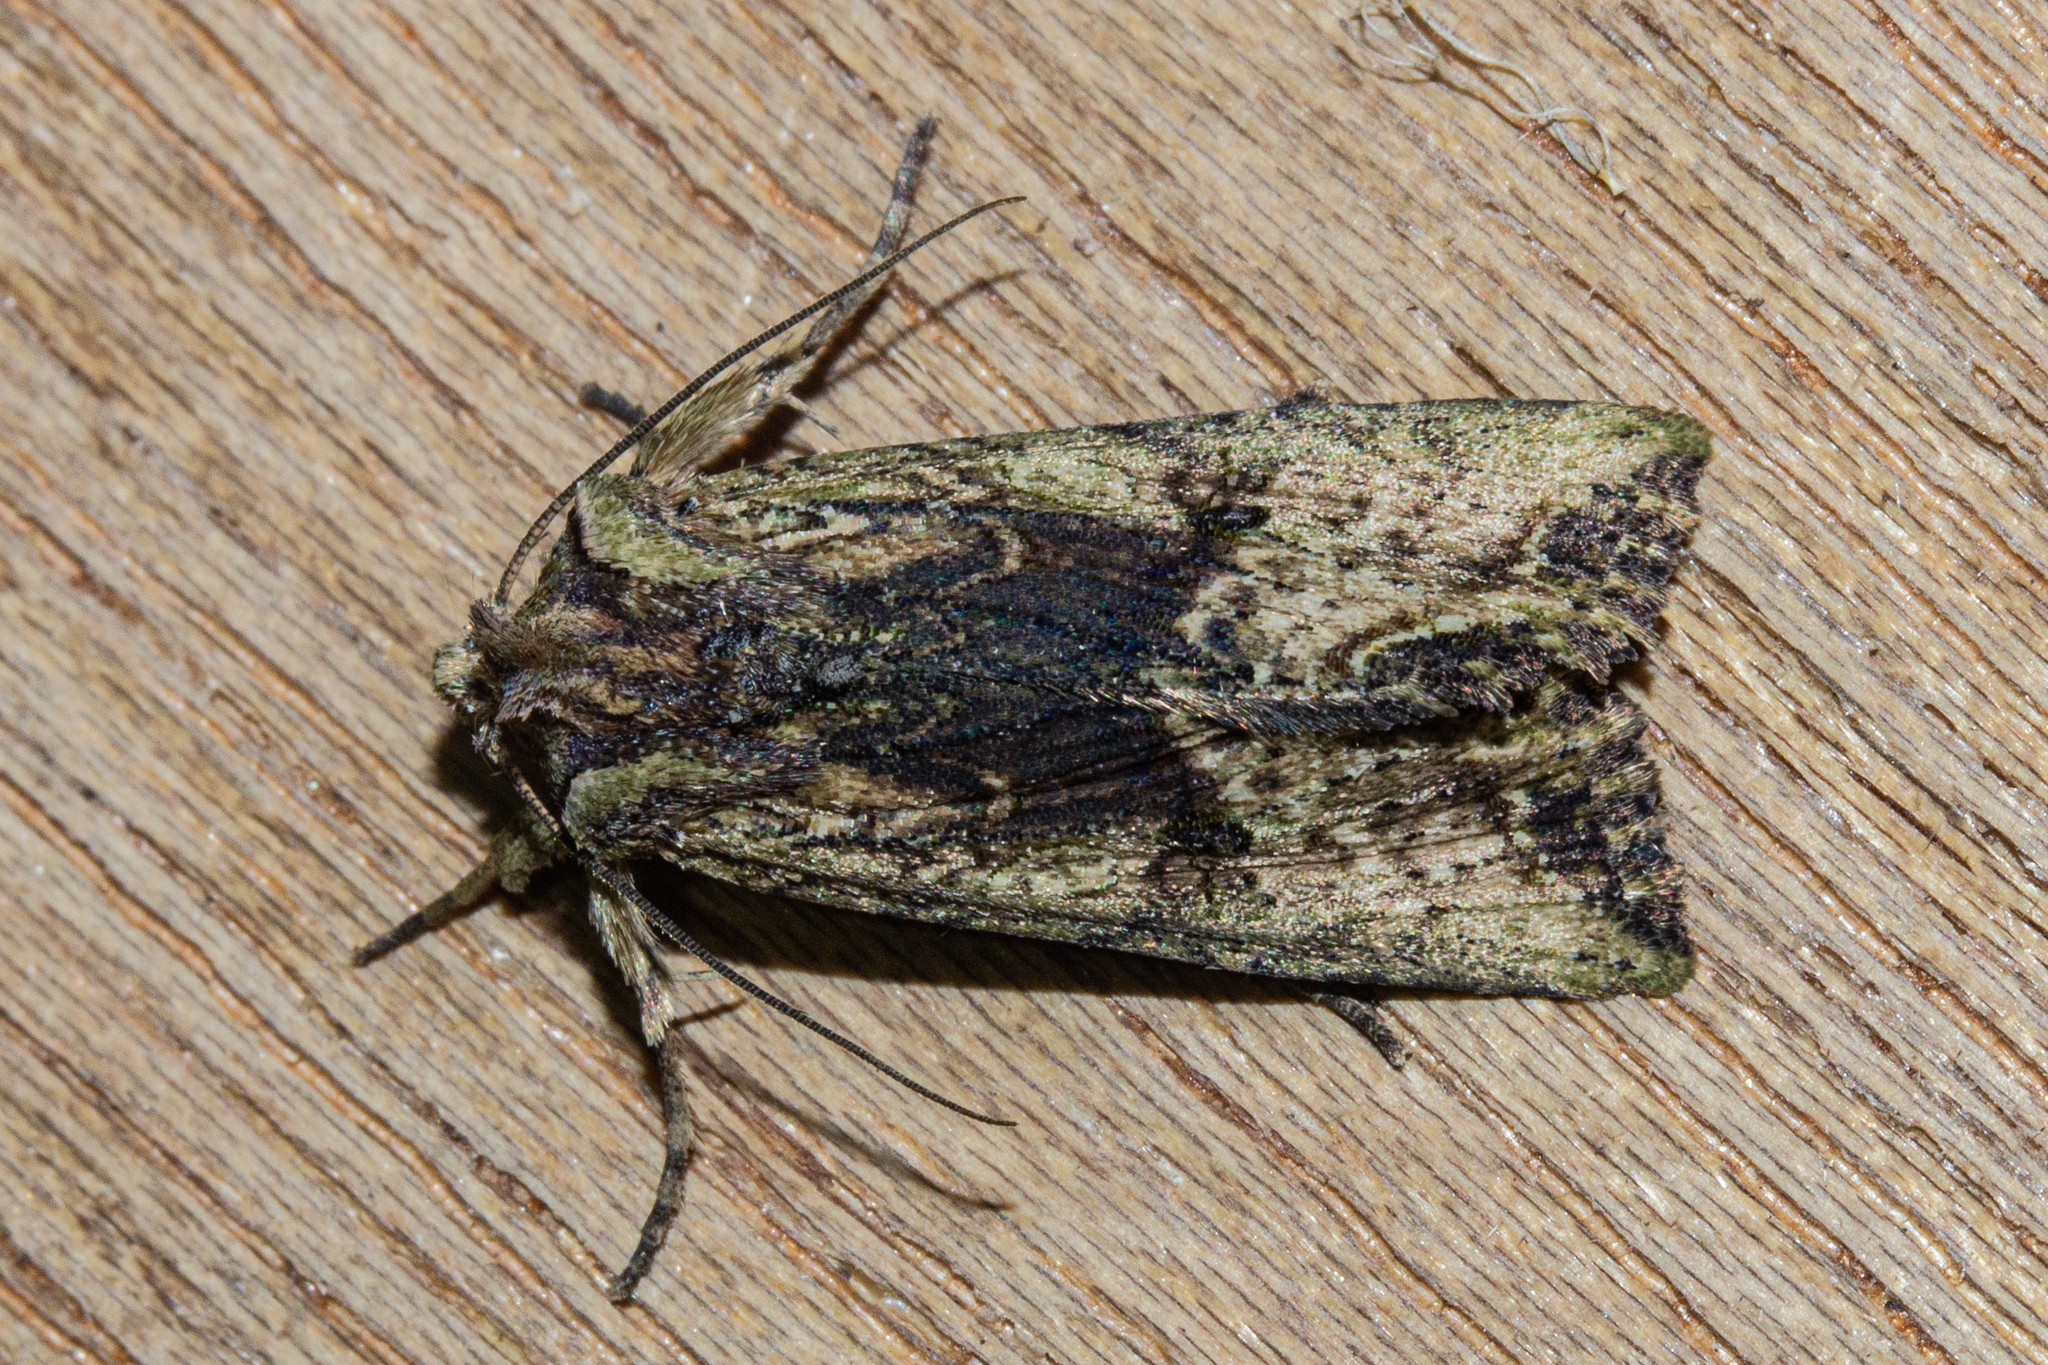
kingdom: Animalia
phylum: Arthropoda
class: Insecta
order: Lepidoptera
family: Noctuidae
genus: Meterana
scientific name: Meterana coeleno
